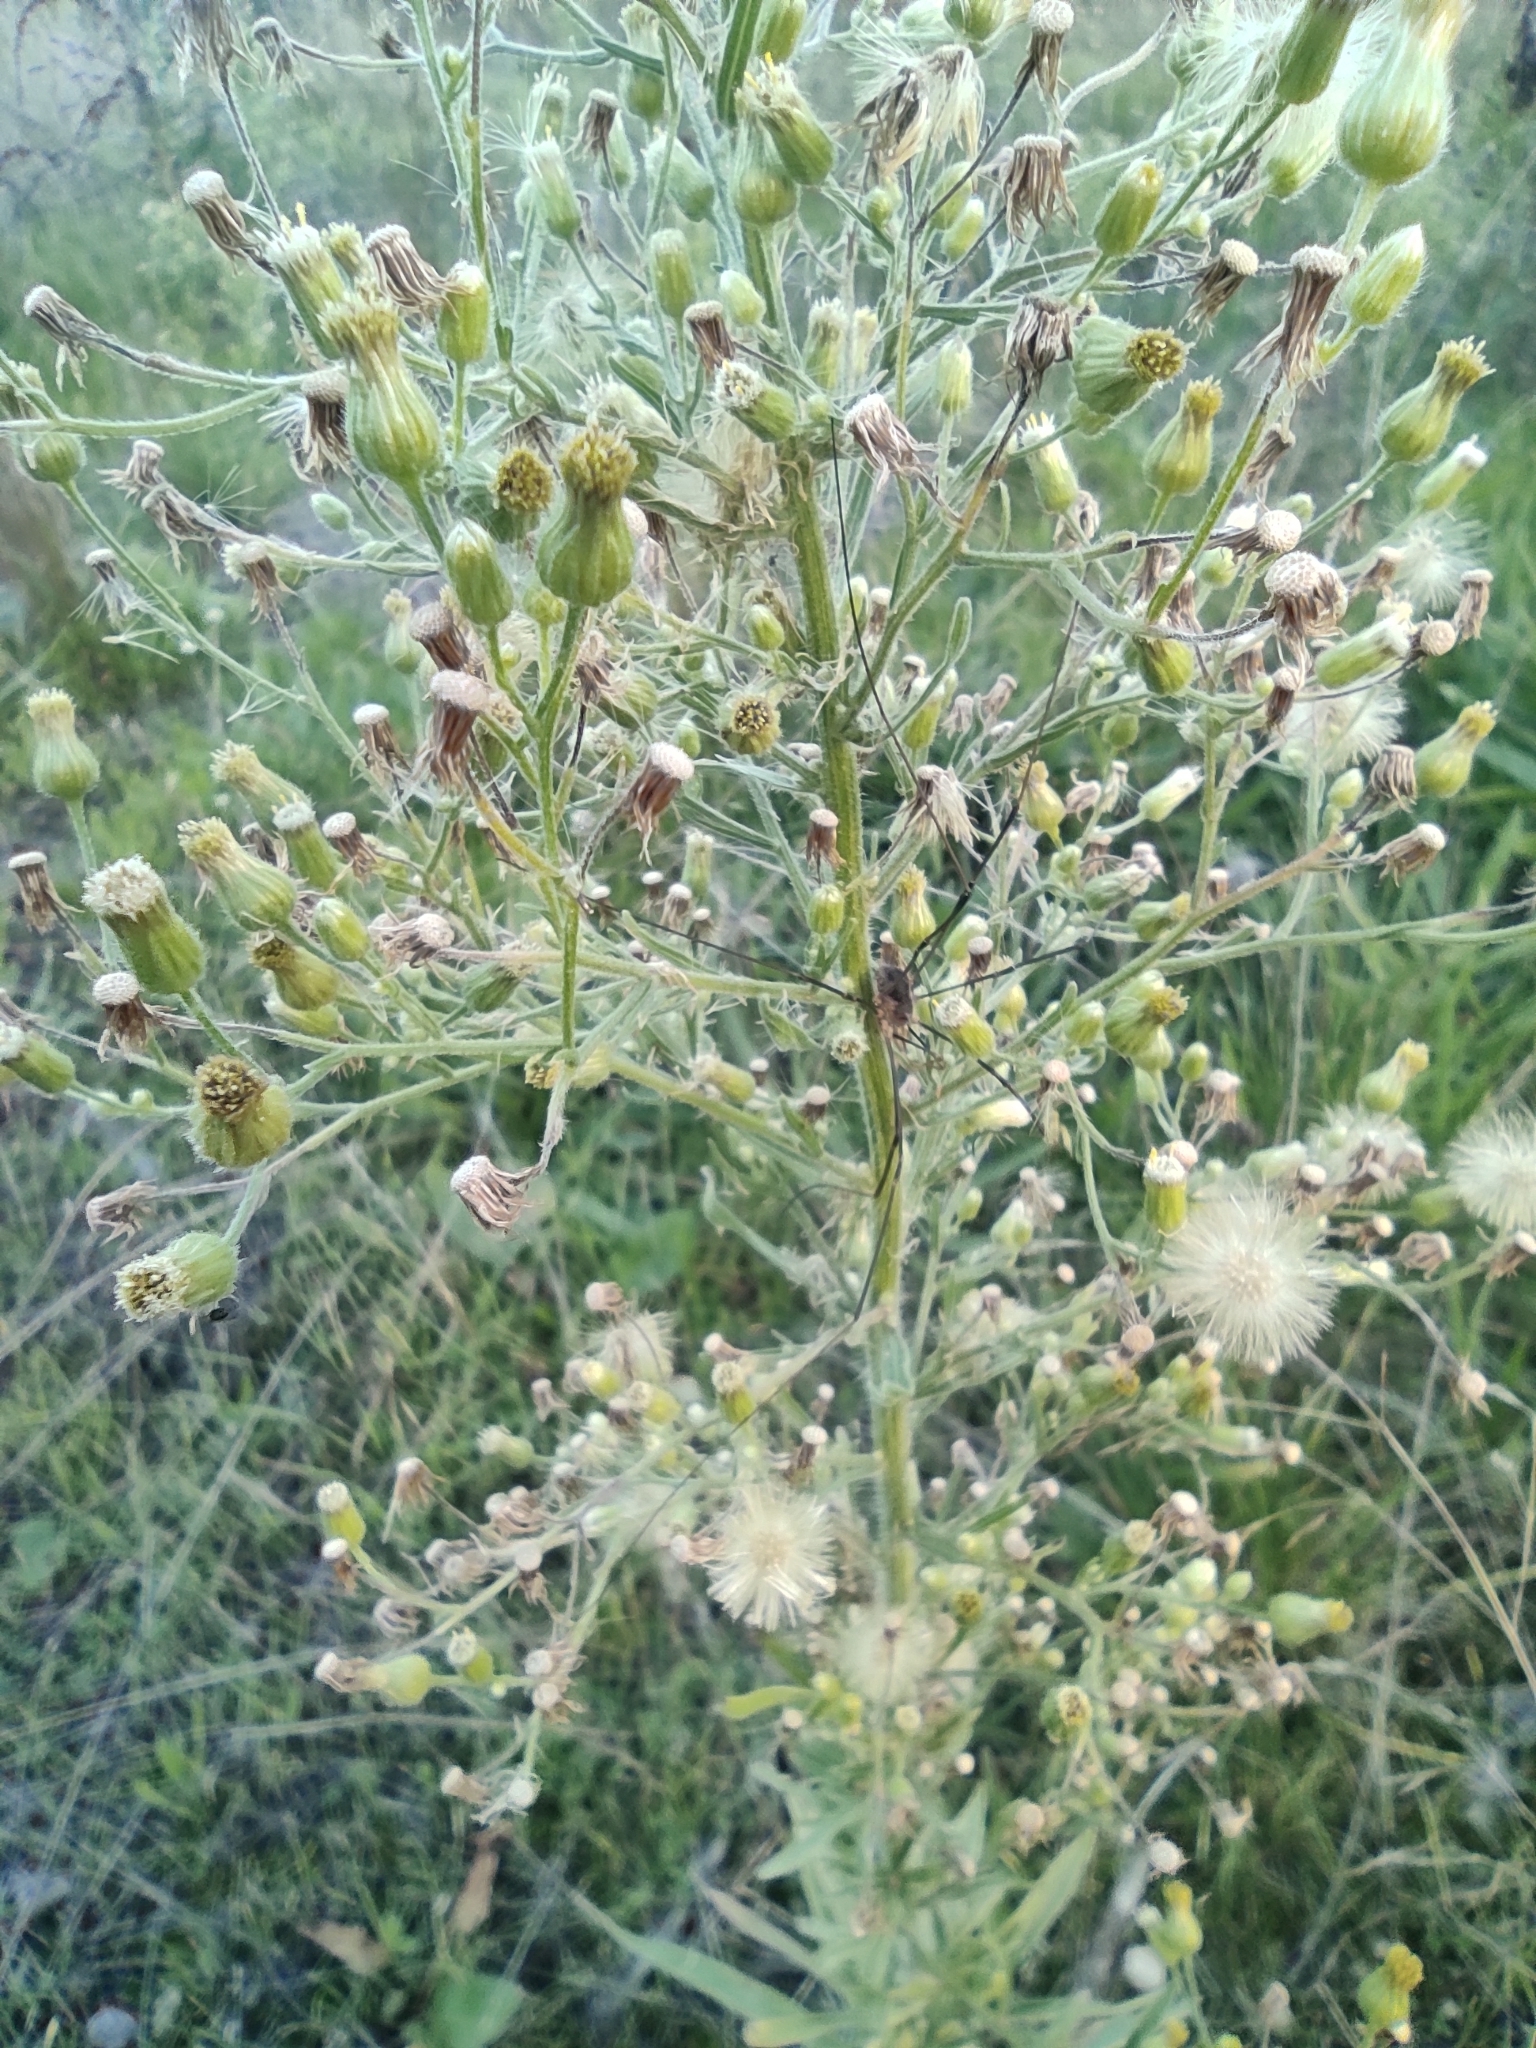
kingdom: Animalia
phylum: Arthropoda
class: Arachnida
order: Opiliones
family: Phalangiidae
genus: Phalangium
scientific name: Phalangium opilio
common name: Daddy longleg
